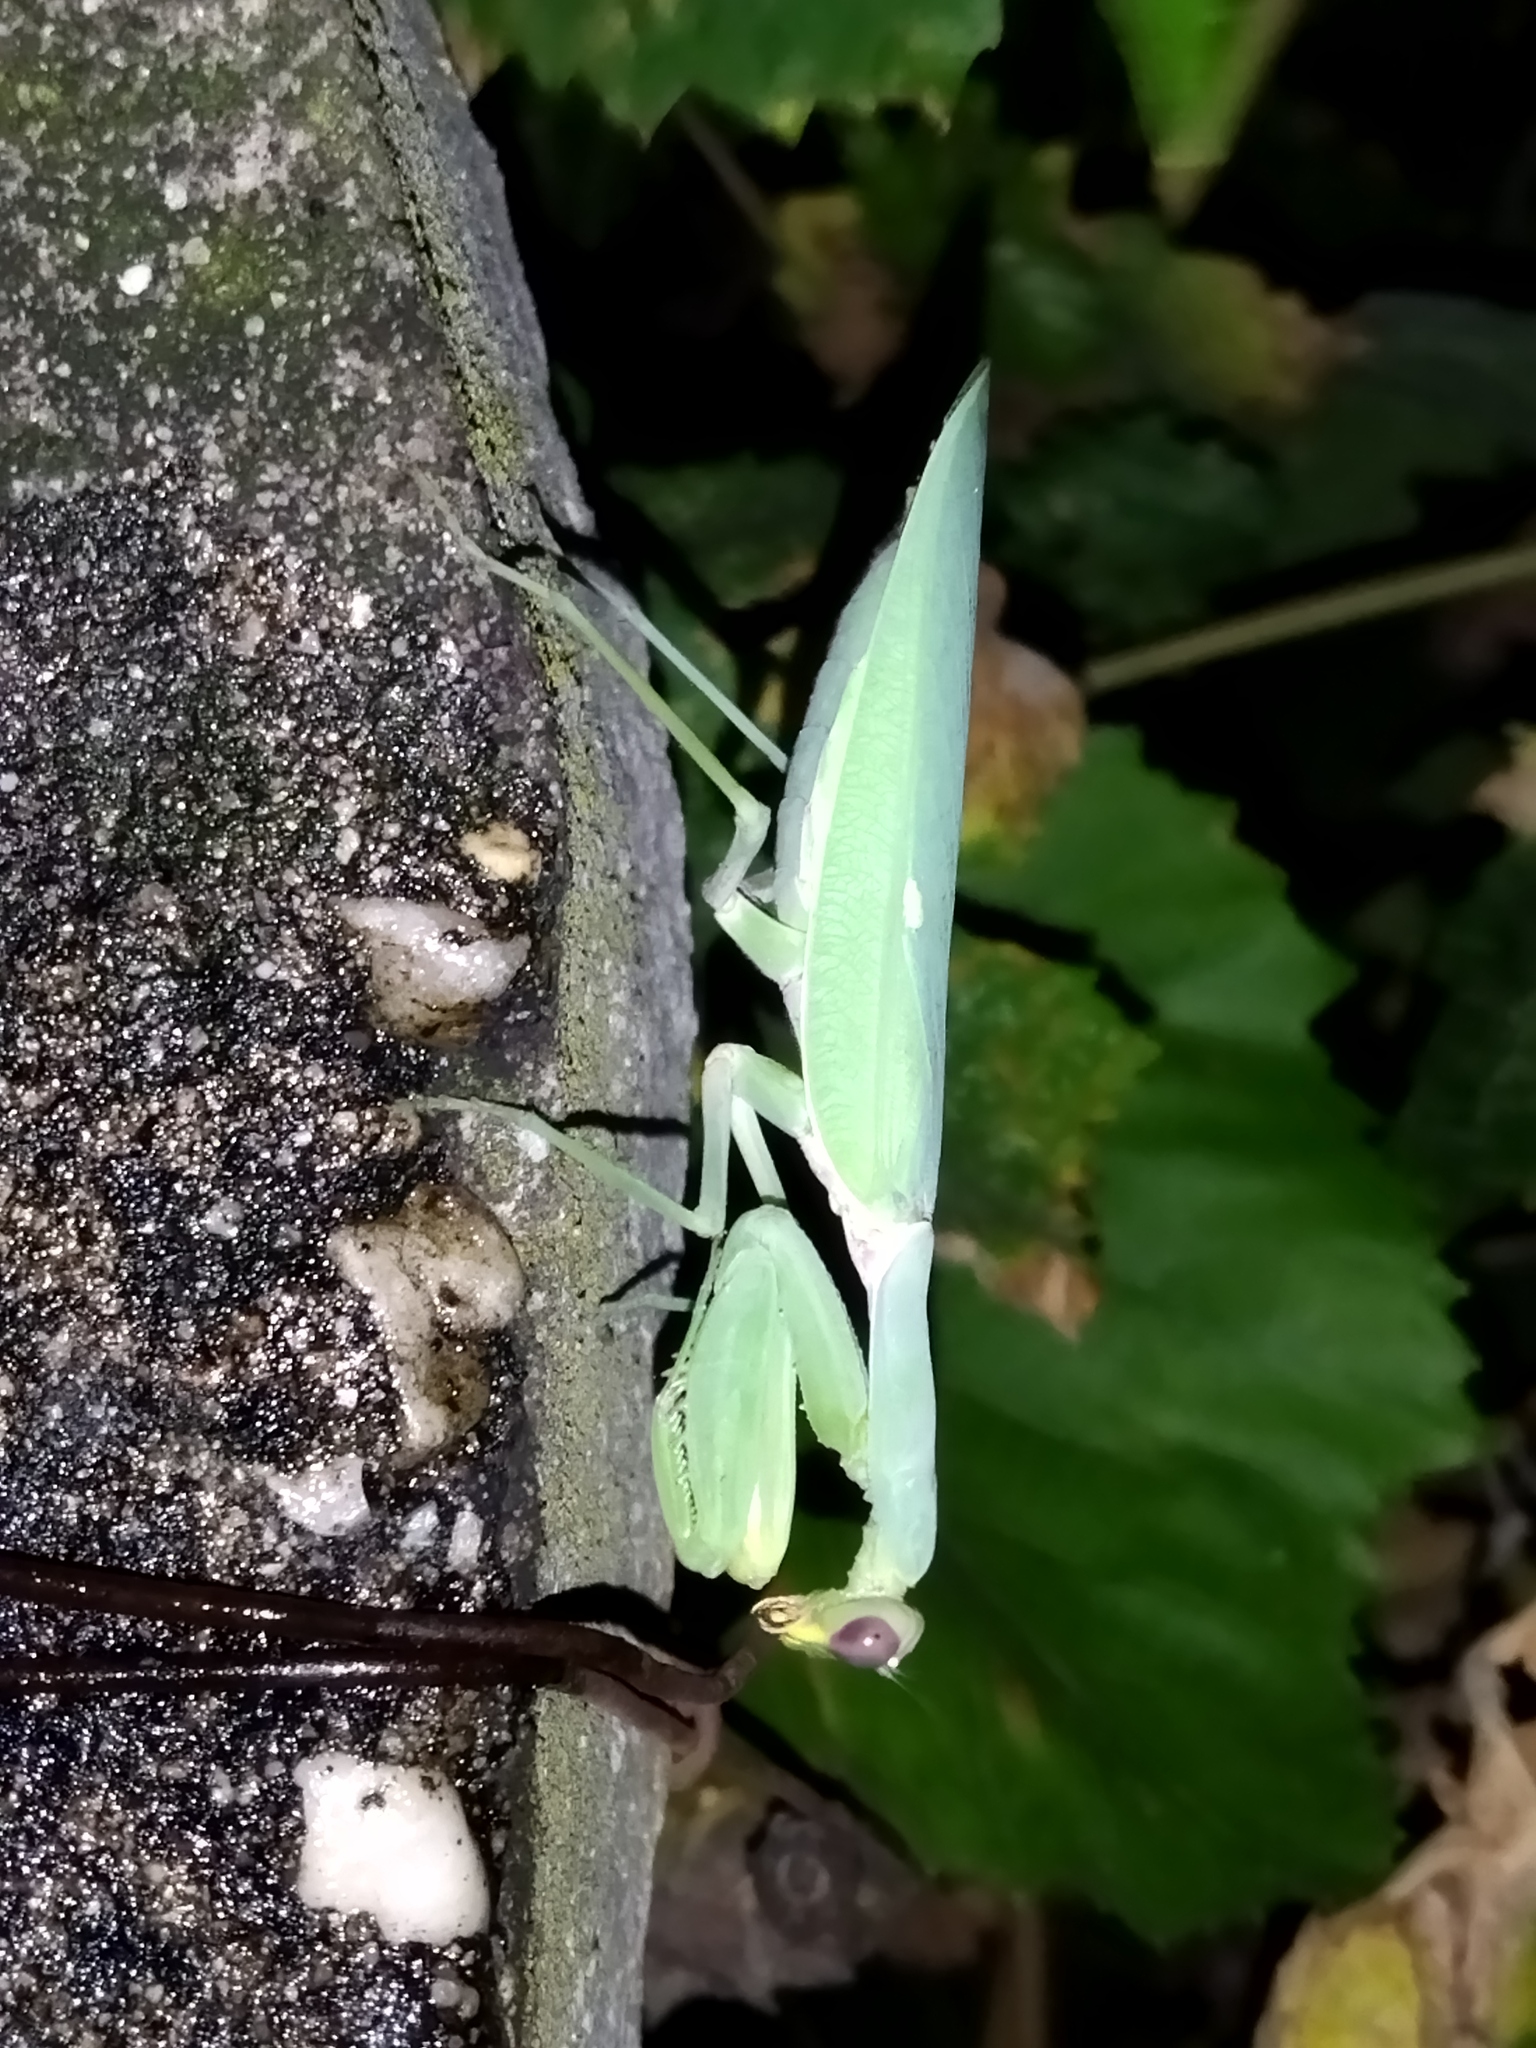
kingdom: Animalia
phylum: Arthropoda
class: Insecta
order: Mantodea
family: Mantidae
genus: Hierodula
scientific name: Hierodula transcaucasica
